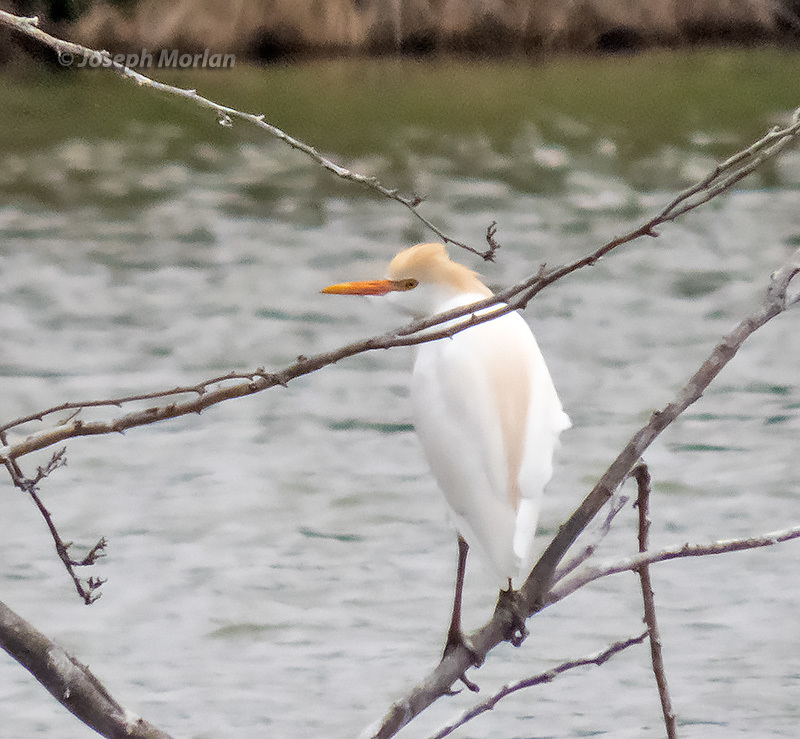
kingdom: Animalia
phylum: Chordata
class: Aves
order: Pelecaniformes
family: Ardeidae
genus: Bubulcus
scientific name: Bubulcus ibis
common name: Cattle egret
